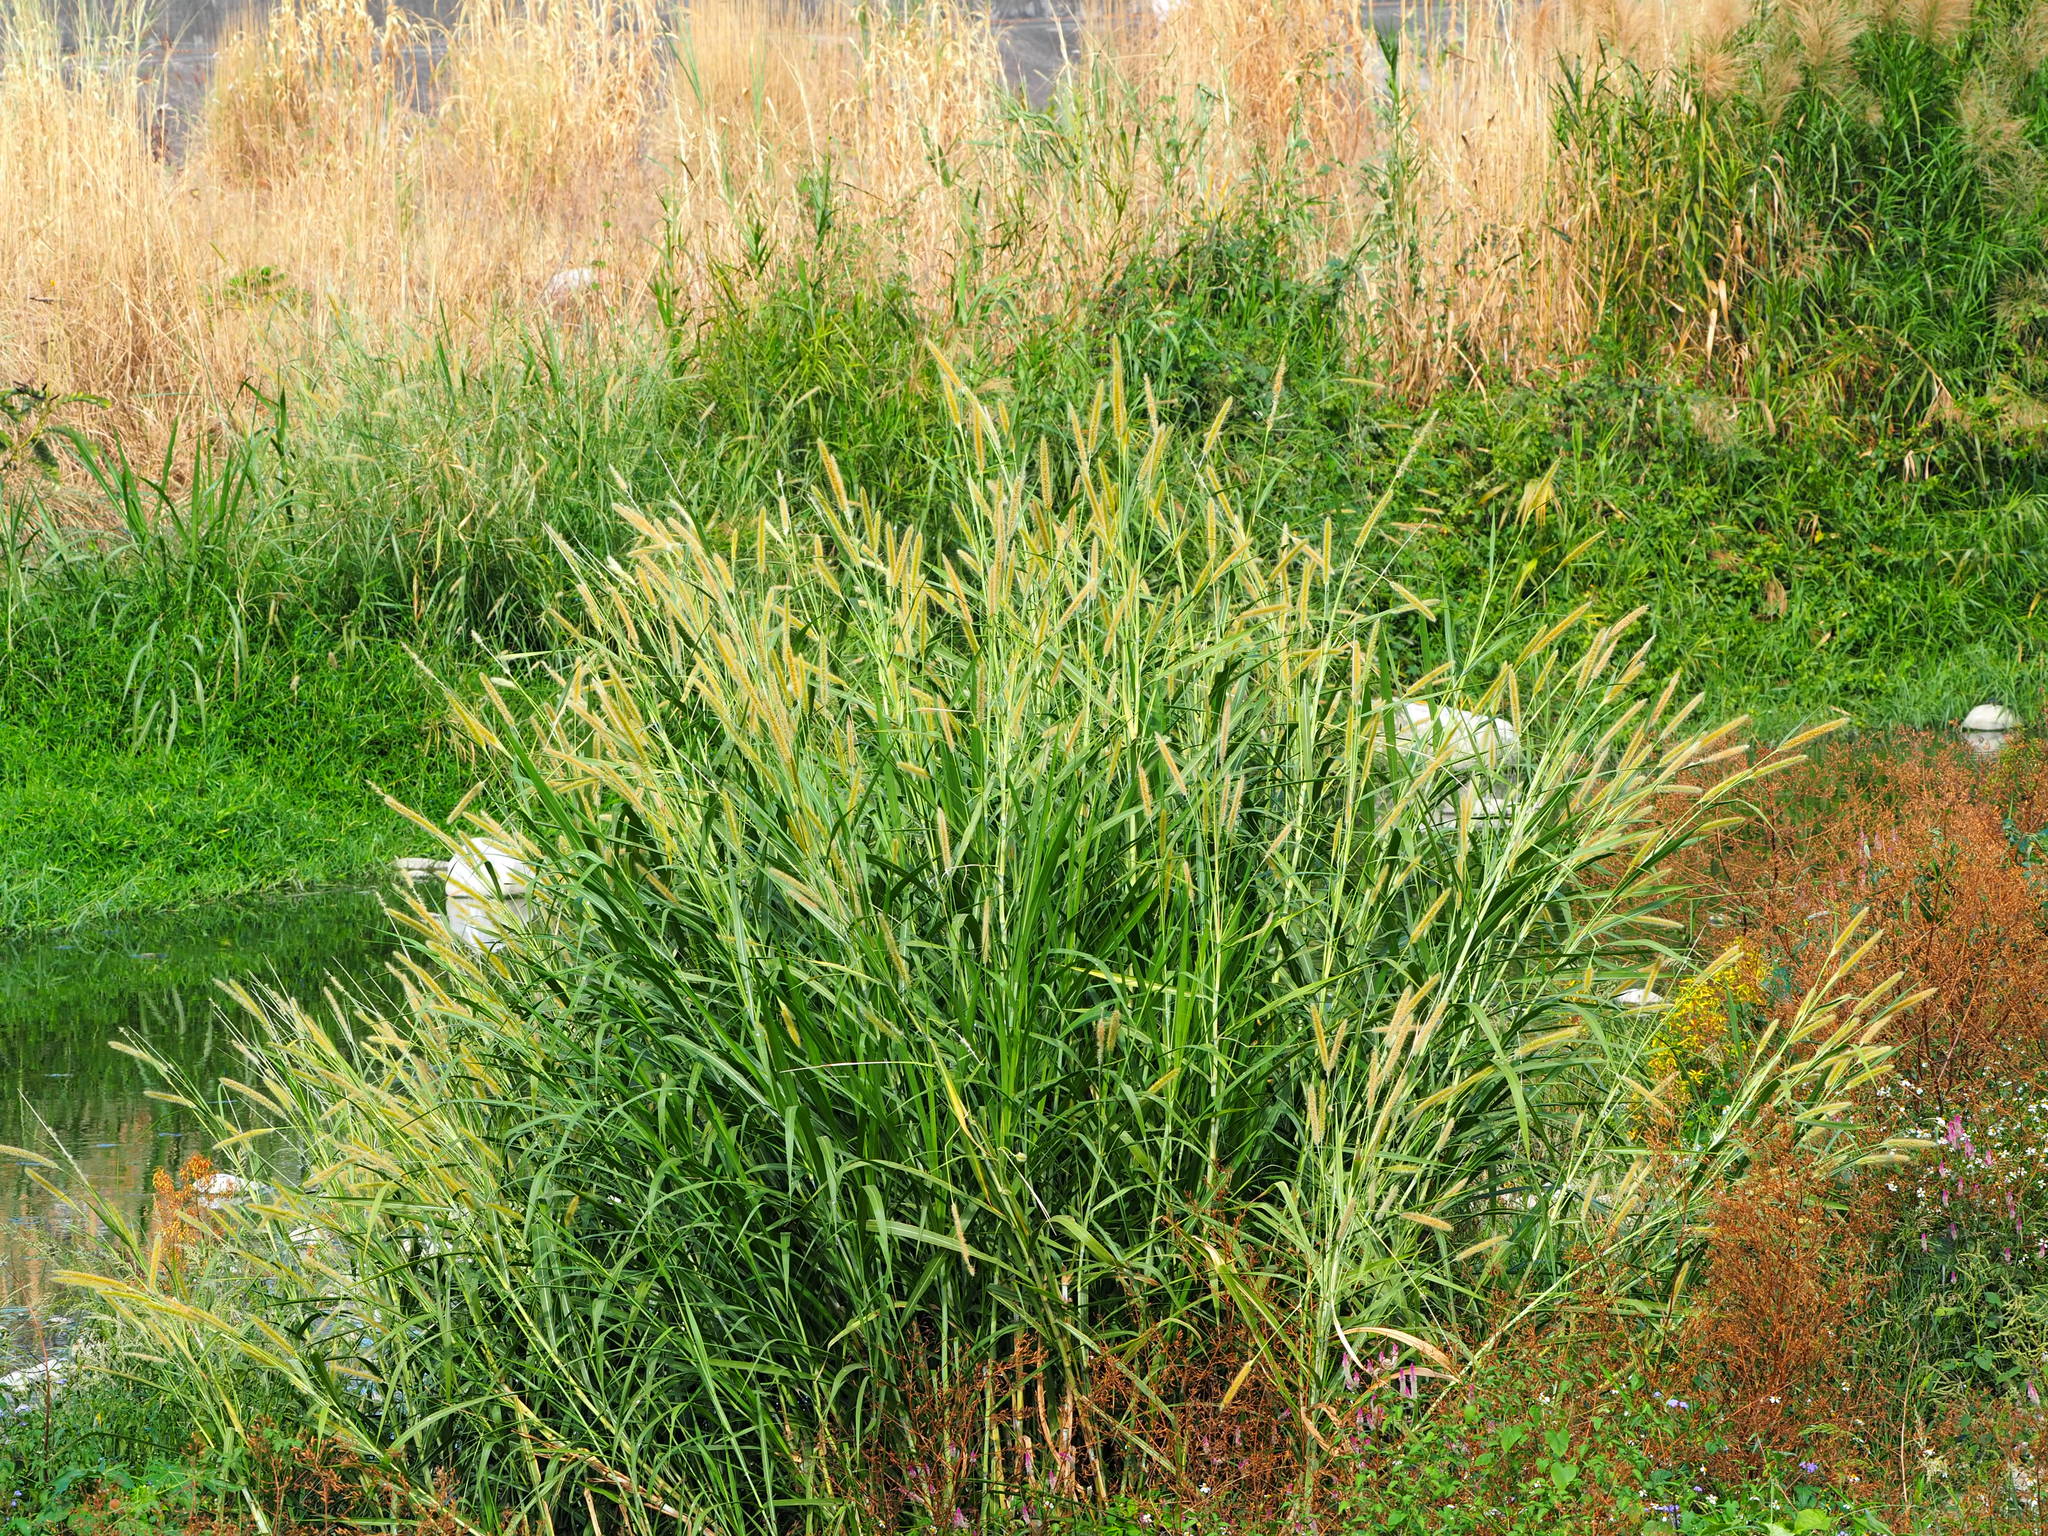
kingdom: Plantae
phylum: Tracheophyta
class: Liliopsida
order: Poales
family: Poaceae
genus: Cenchrus
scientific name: Cenchrus purpureus
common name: Elephant grass
